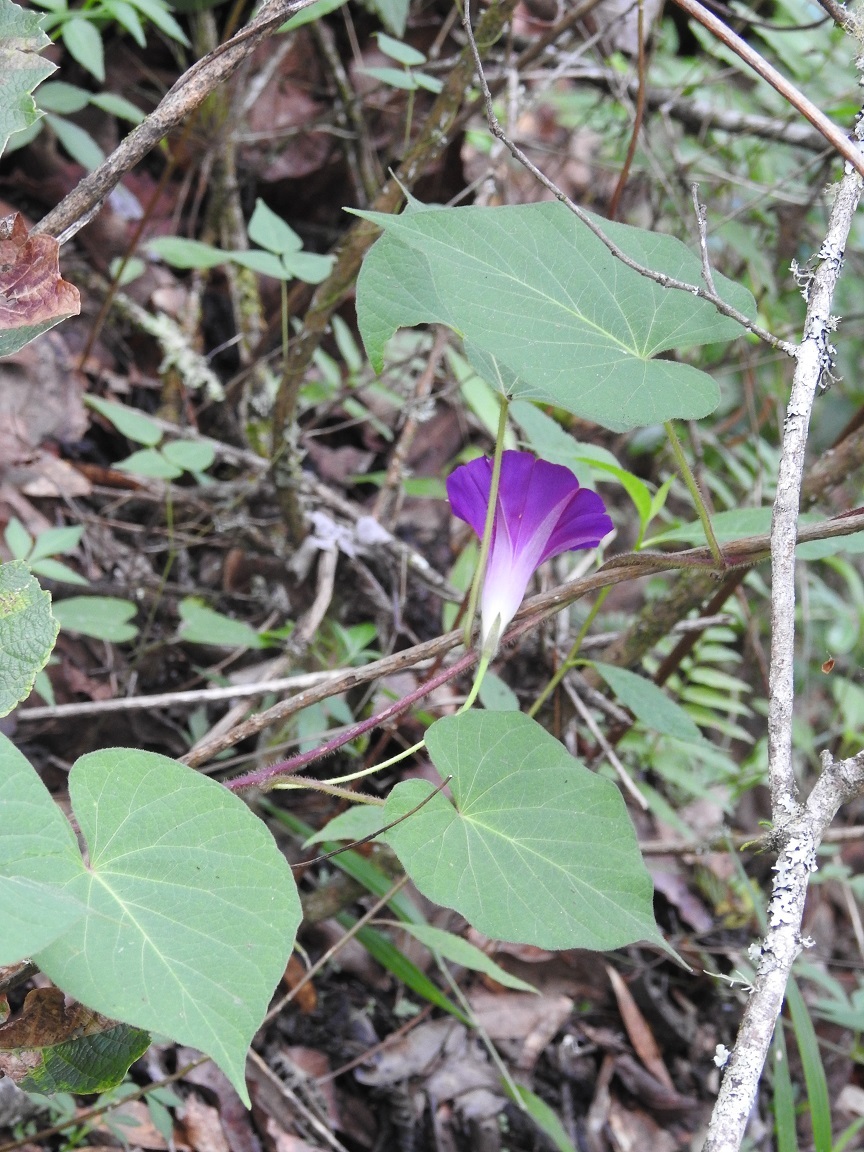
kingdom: Plantae
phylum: Tracheophyta
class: Magnoliopsida
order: Solanales
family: Convolvulaceae
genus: Ipomoea
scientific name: Ipomoea orizabensis
